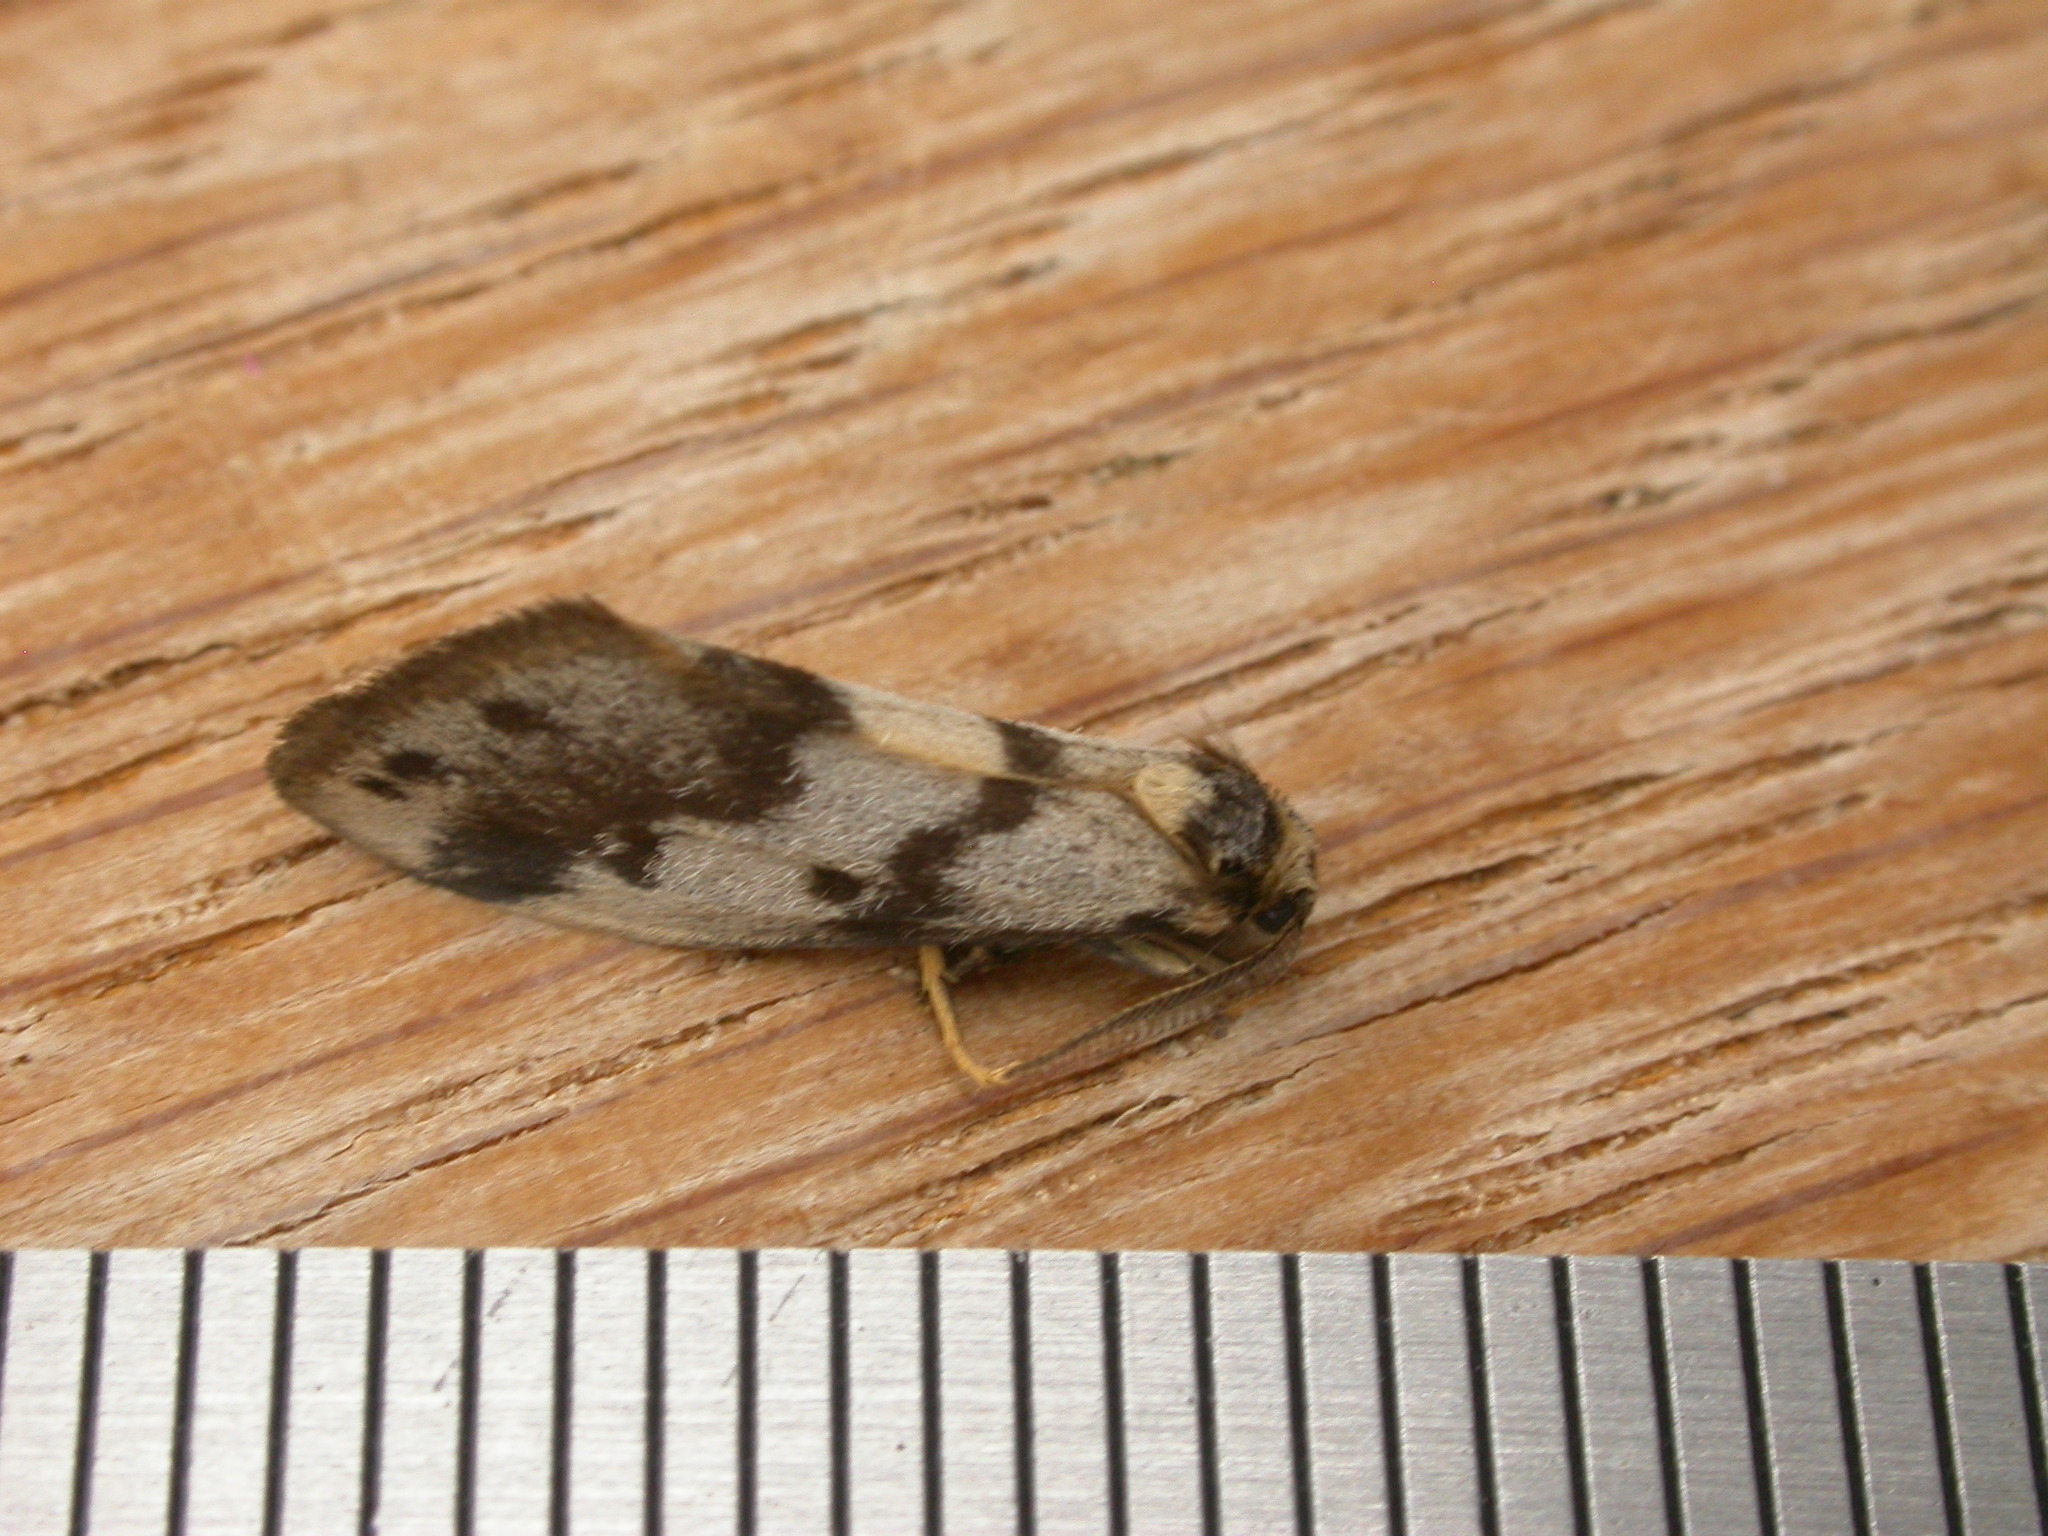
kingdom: Animalia
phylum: Arthropoda
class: Insecta
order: Lepidoptera
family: Erebidae
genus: Anestia
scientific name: Anestia
